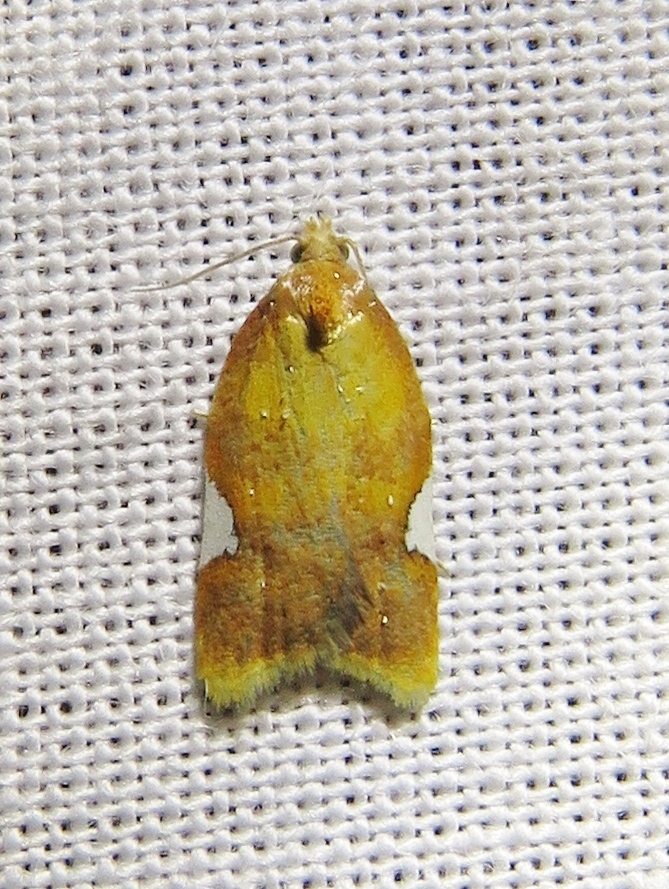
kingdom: Animalia
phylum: Arthropoda
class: Insecta
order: Lepidoptera
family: Tortricidae
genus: Acleris
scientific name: Acleris holmiana
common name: Golden leafroller moth
